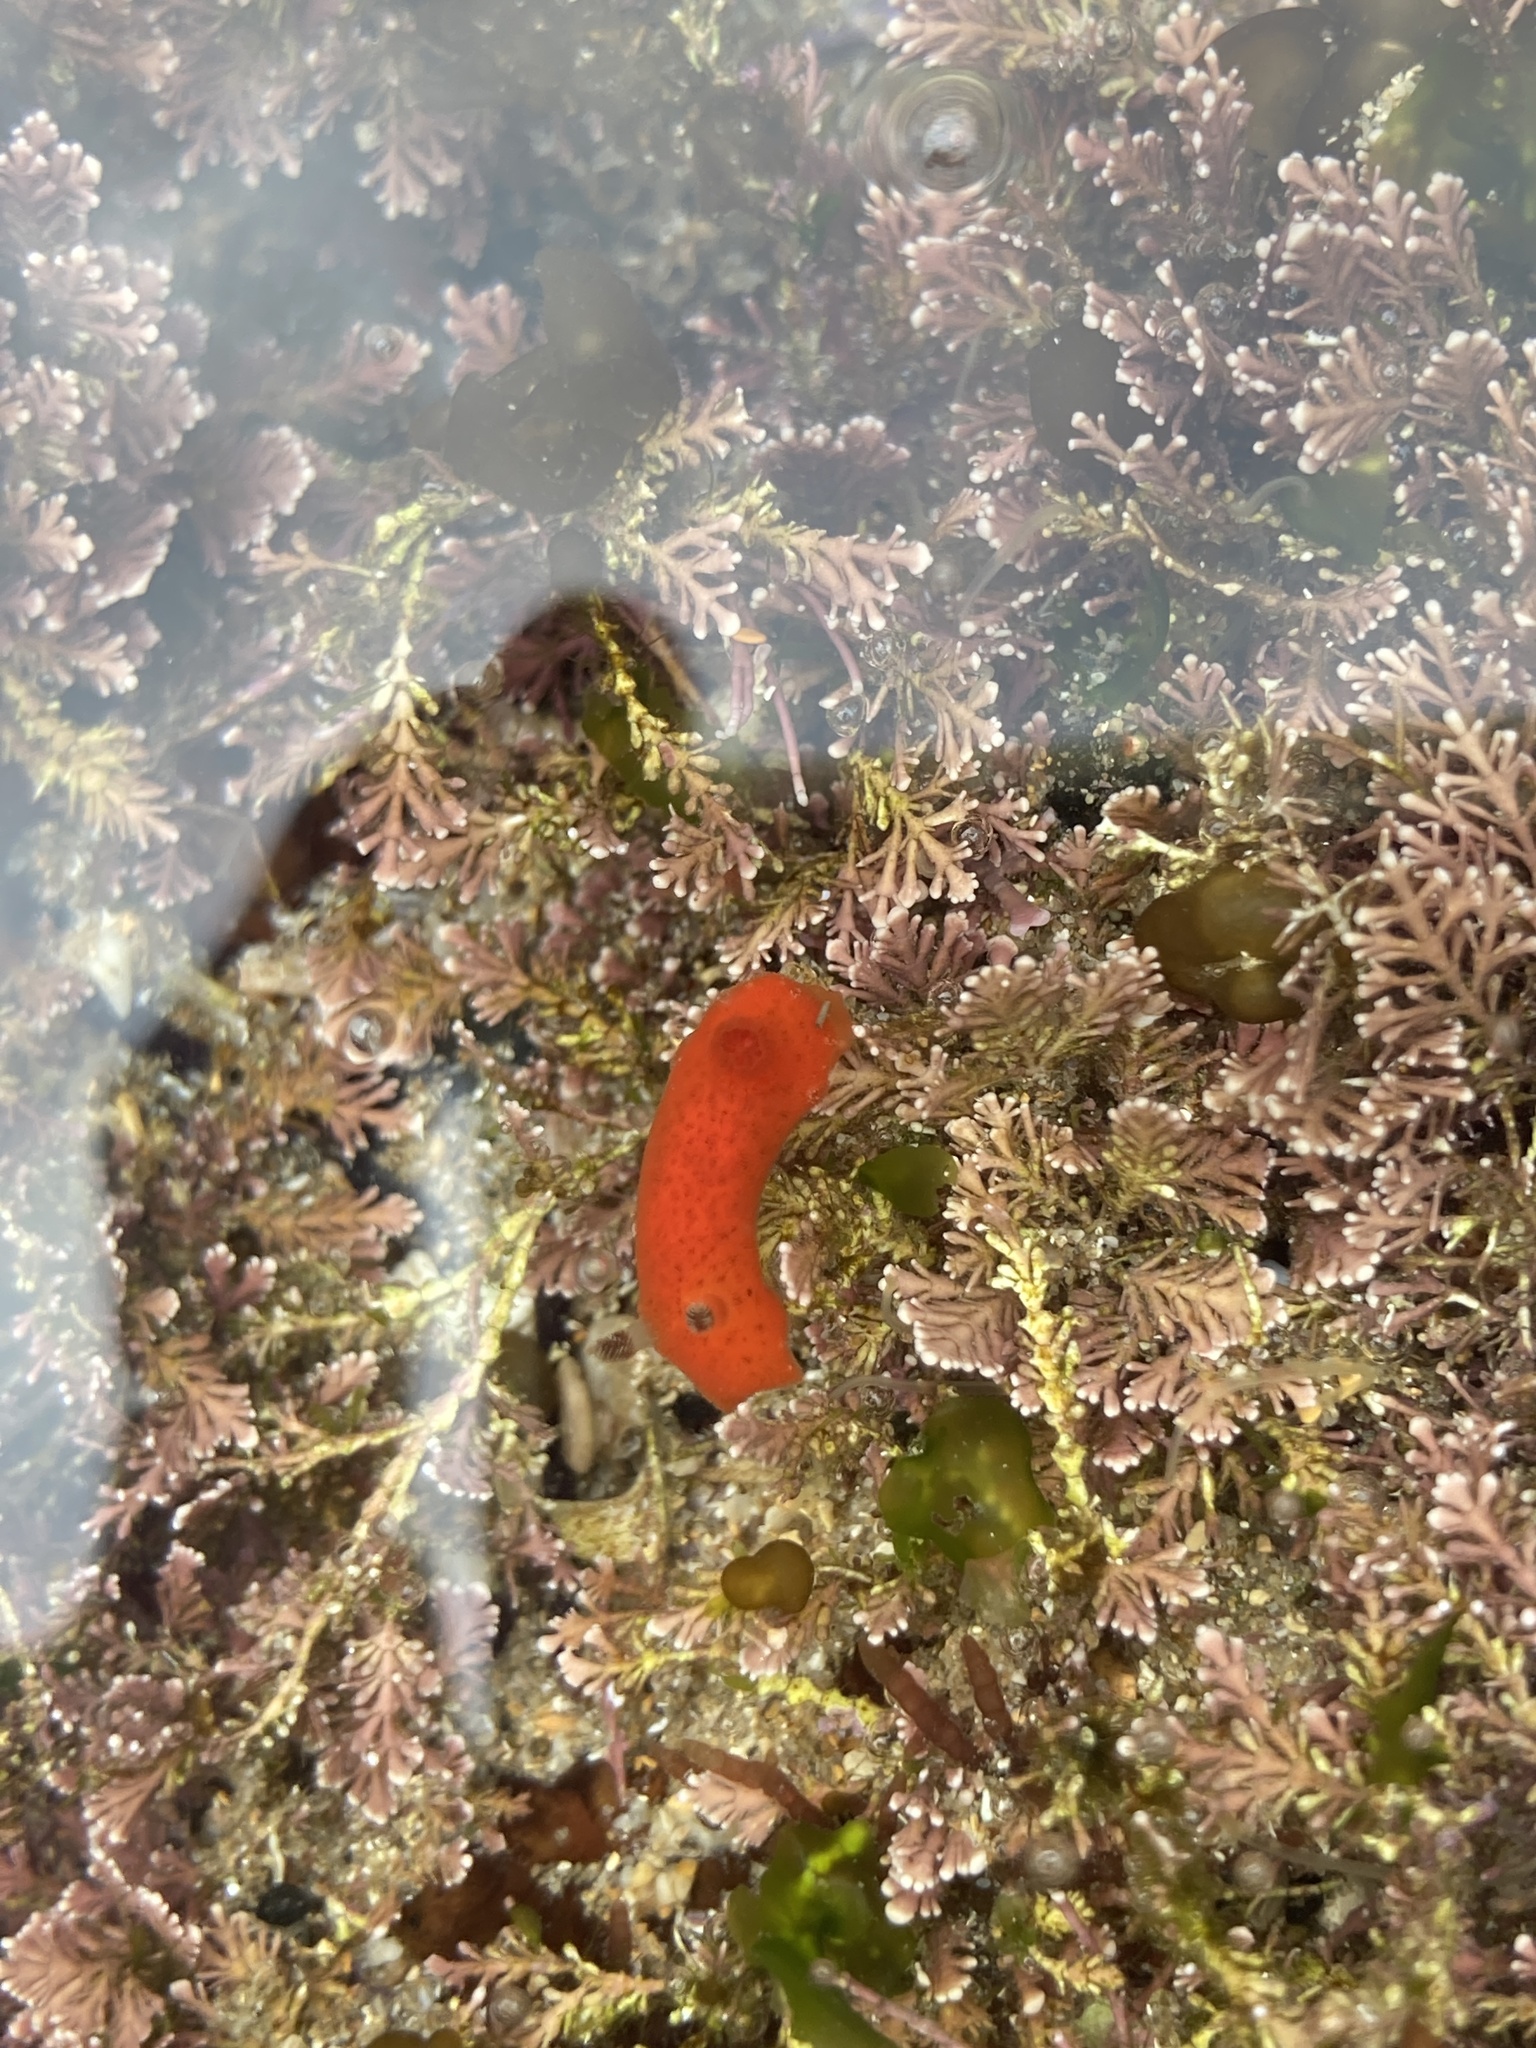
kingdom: Animalia
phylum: Mollusca
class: Gastropoda
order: Nudibranchia
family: Discodorididae
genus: Rostanga
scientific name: Rostanga arbutus
